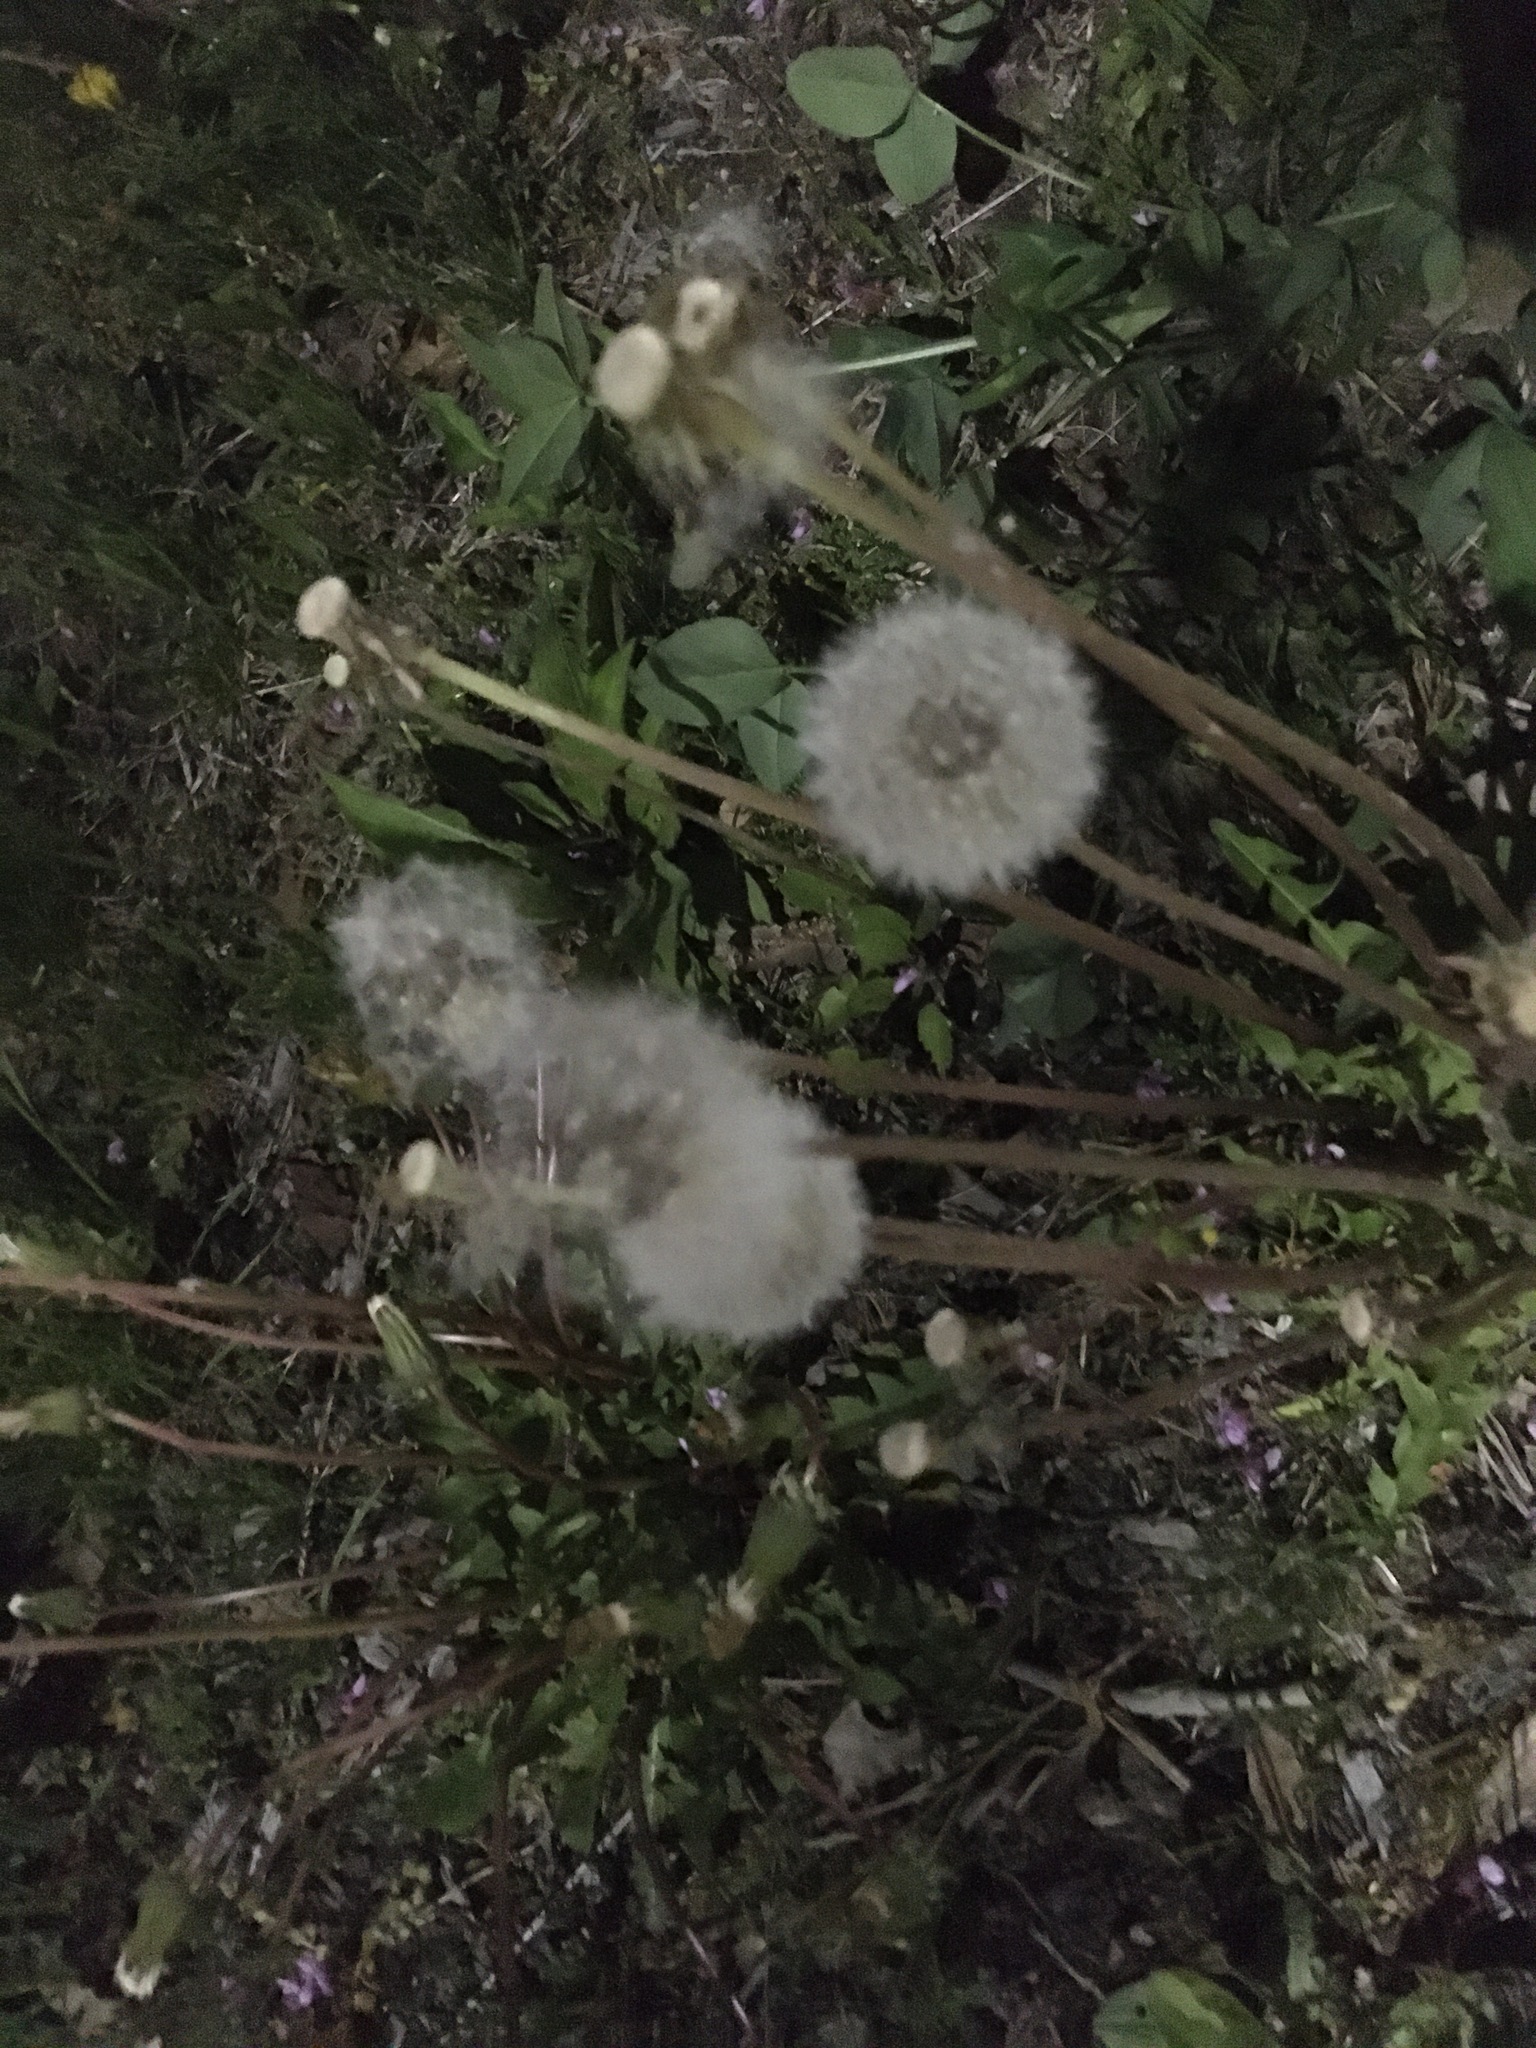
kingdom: Plantae
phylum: Tracheophyta
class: Magnoliopsida
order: Asterales
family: Asteraceae
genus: Taraxacum
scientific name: Taraxacum officinale
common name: Common dandelion
